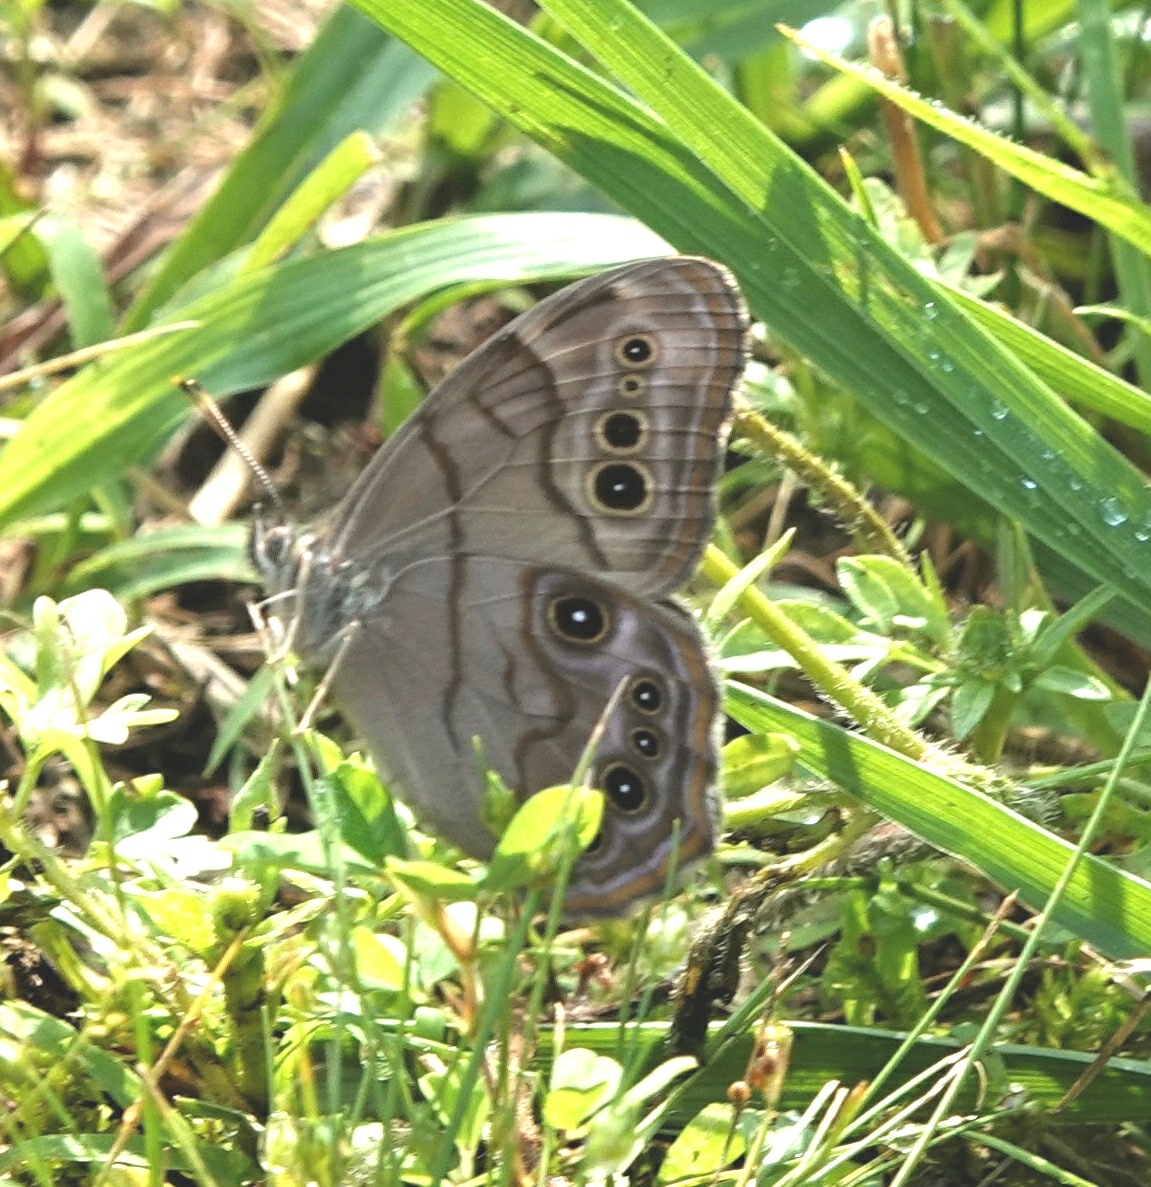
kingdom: Animalia
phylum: Arthropoda
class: Insecta
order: Lepidoptera
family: Nymphalidae
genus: Lethe
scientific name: Lethe anthedon
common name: Northern pearly-eye
